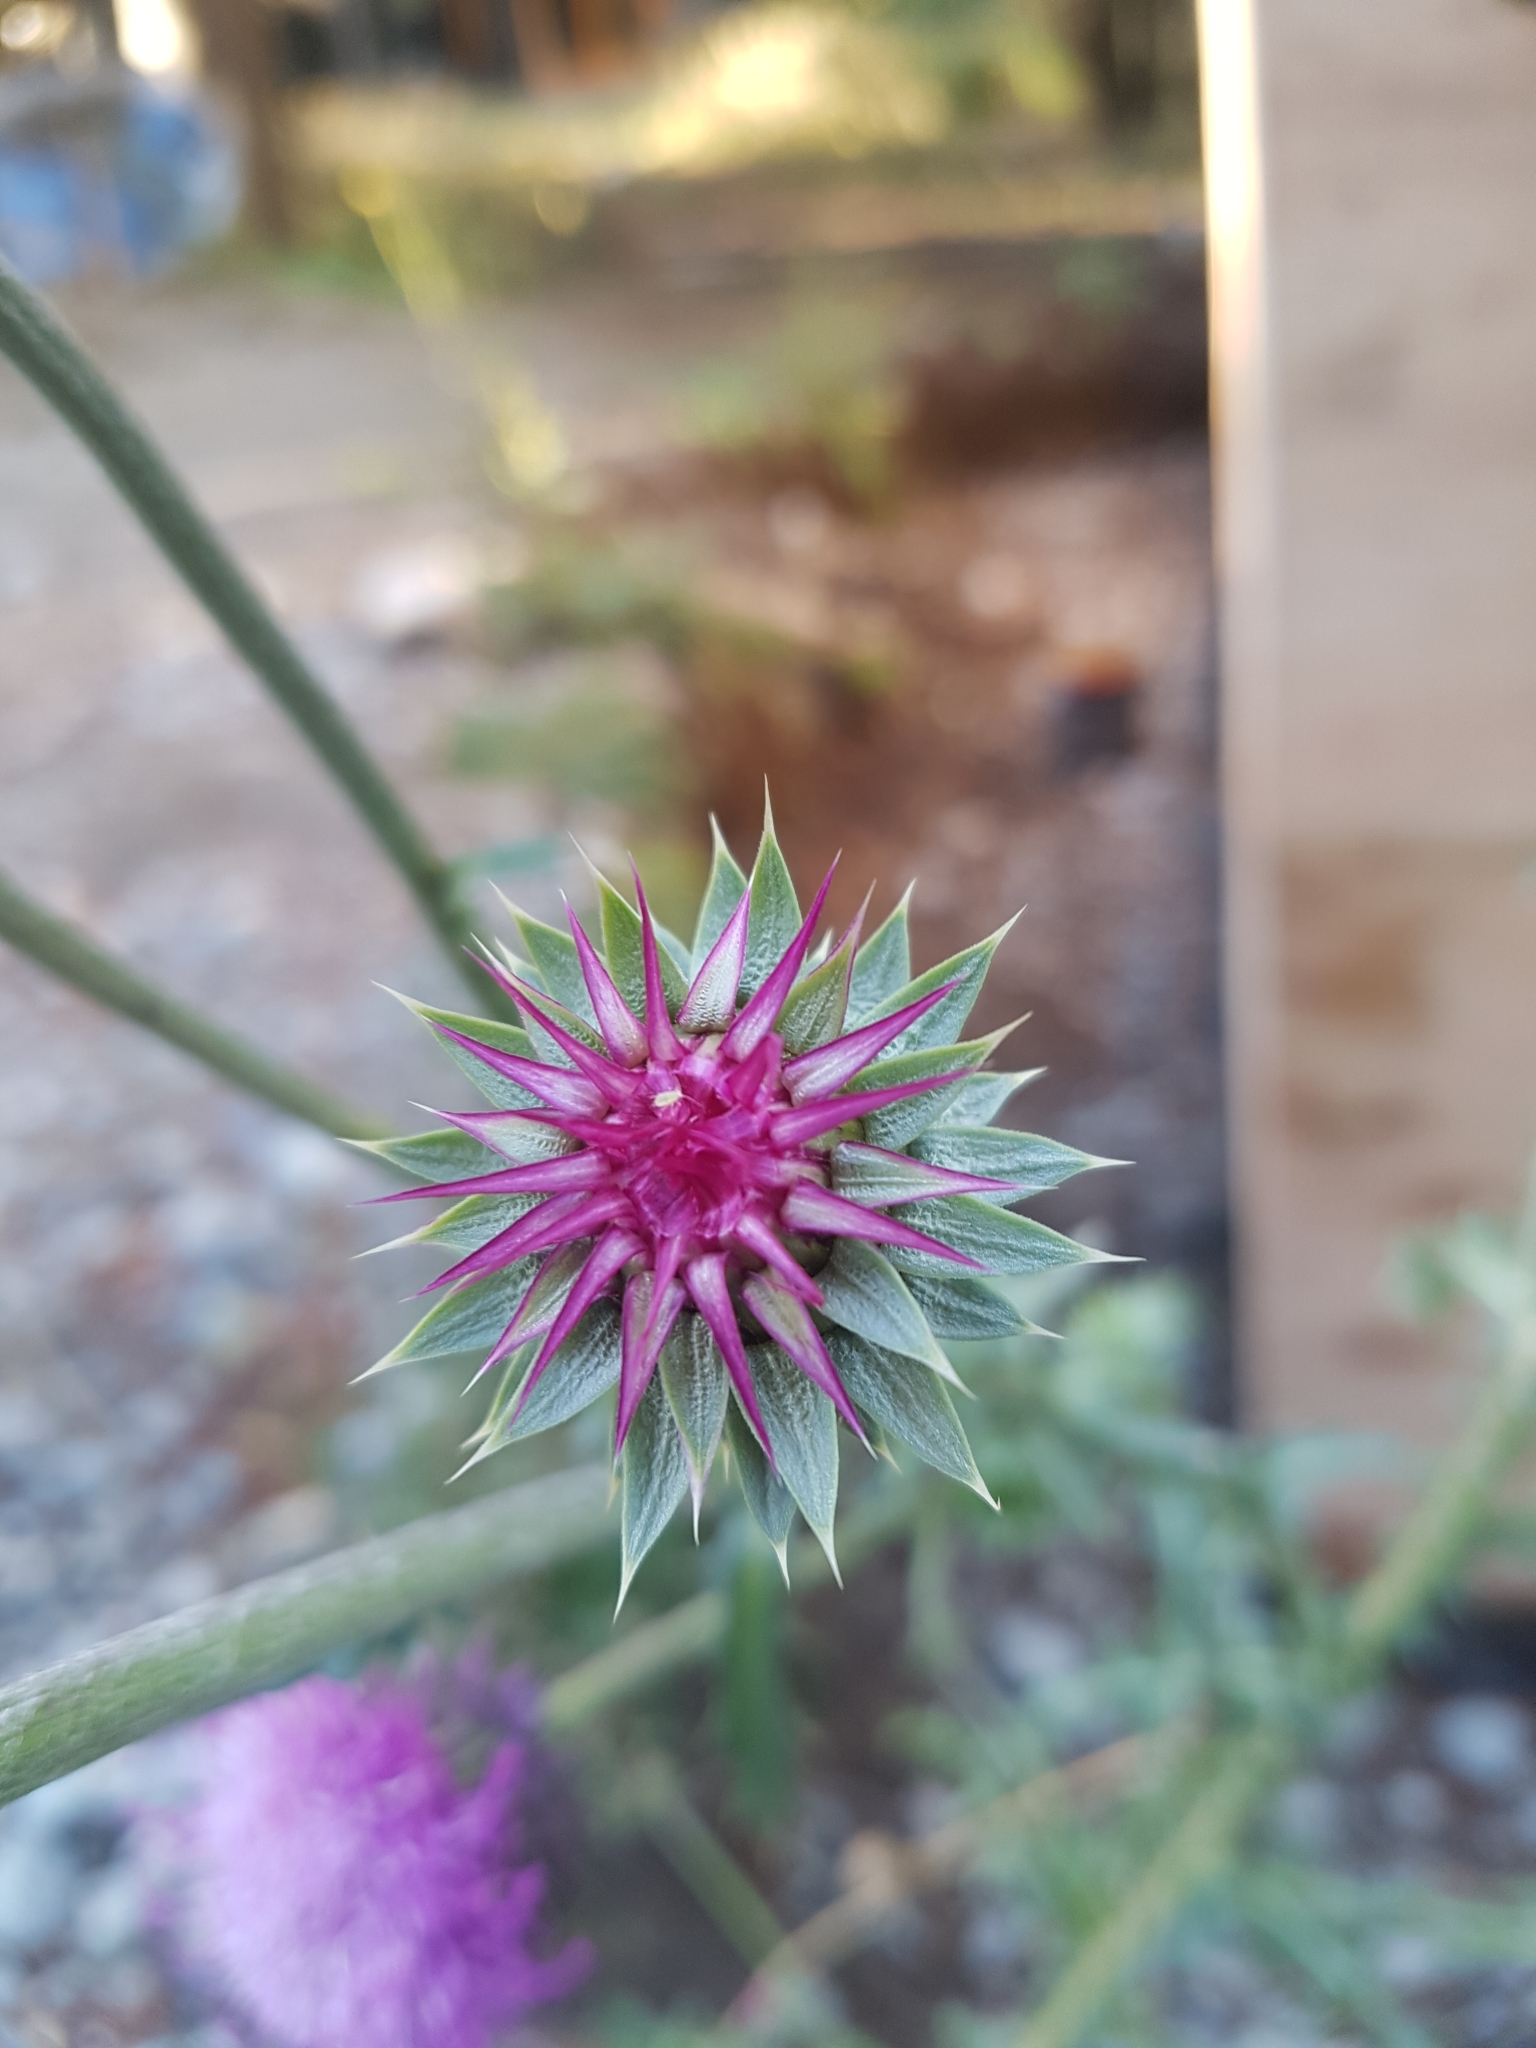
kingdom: Plantae
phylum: Tracheophyta
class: Magnoliopsida
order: Asterales
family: Asteraceae
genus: Carduus
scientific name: Carduus nutans
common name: Musk thistle
